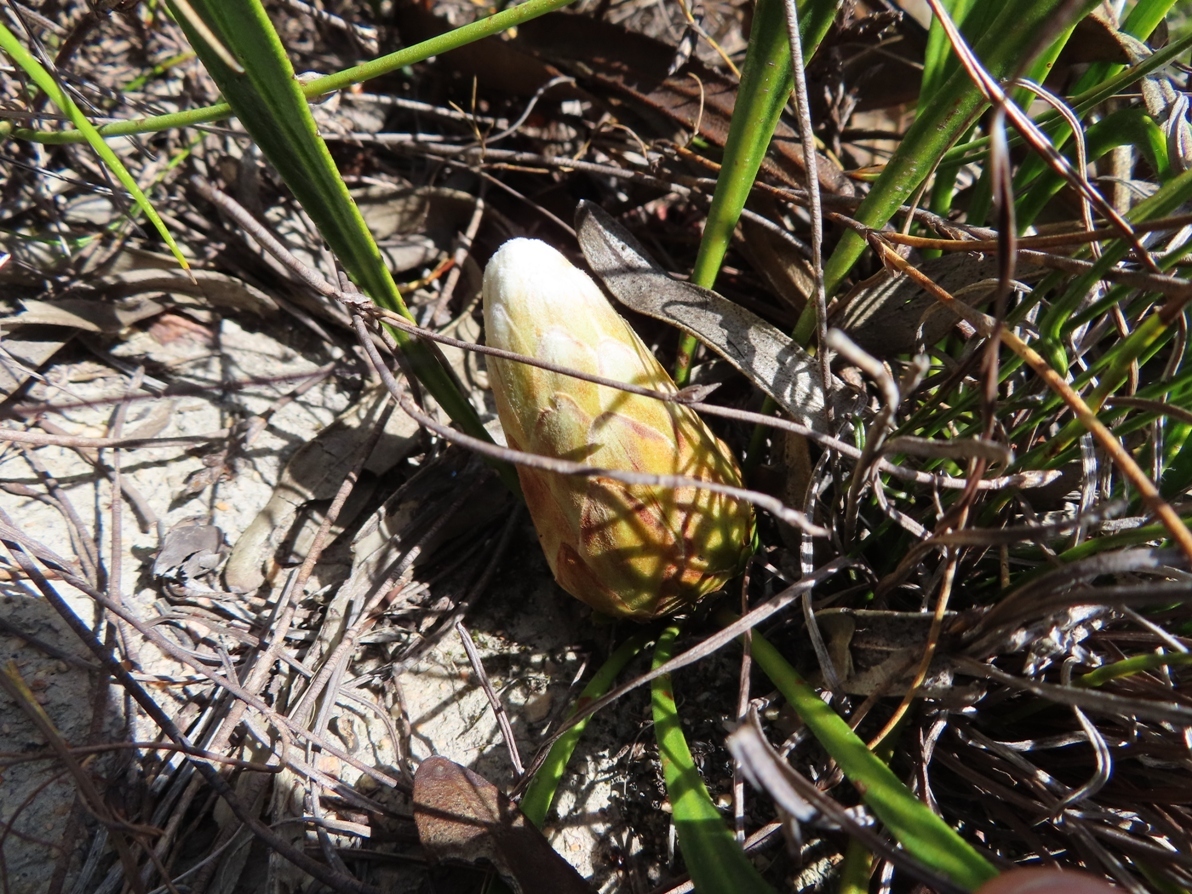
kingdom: Plantae
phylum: Tracheophyta
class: Magnoliopsida
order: Proteales
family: Proteaceae
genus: Protea
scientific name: Protea aspera
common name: Rough-leaf sugarbush
